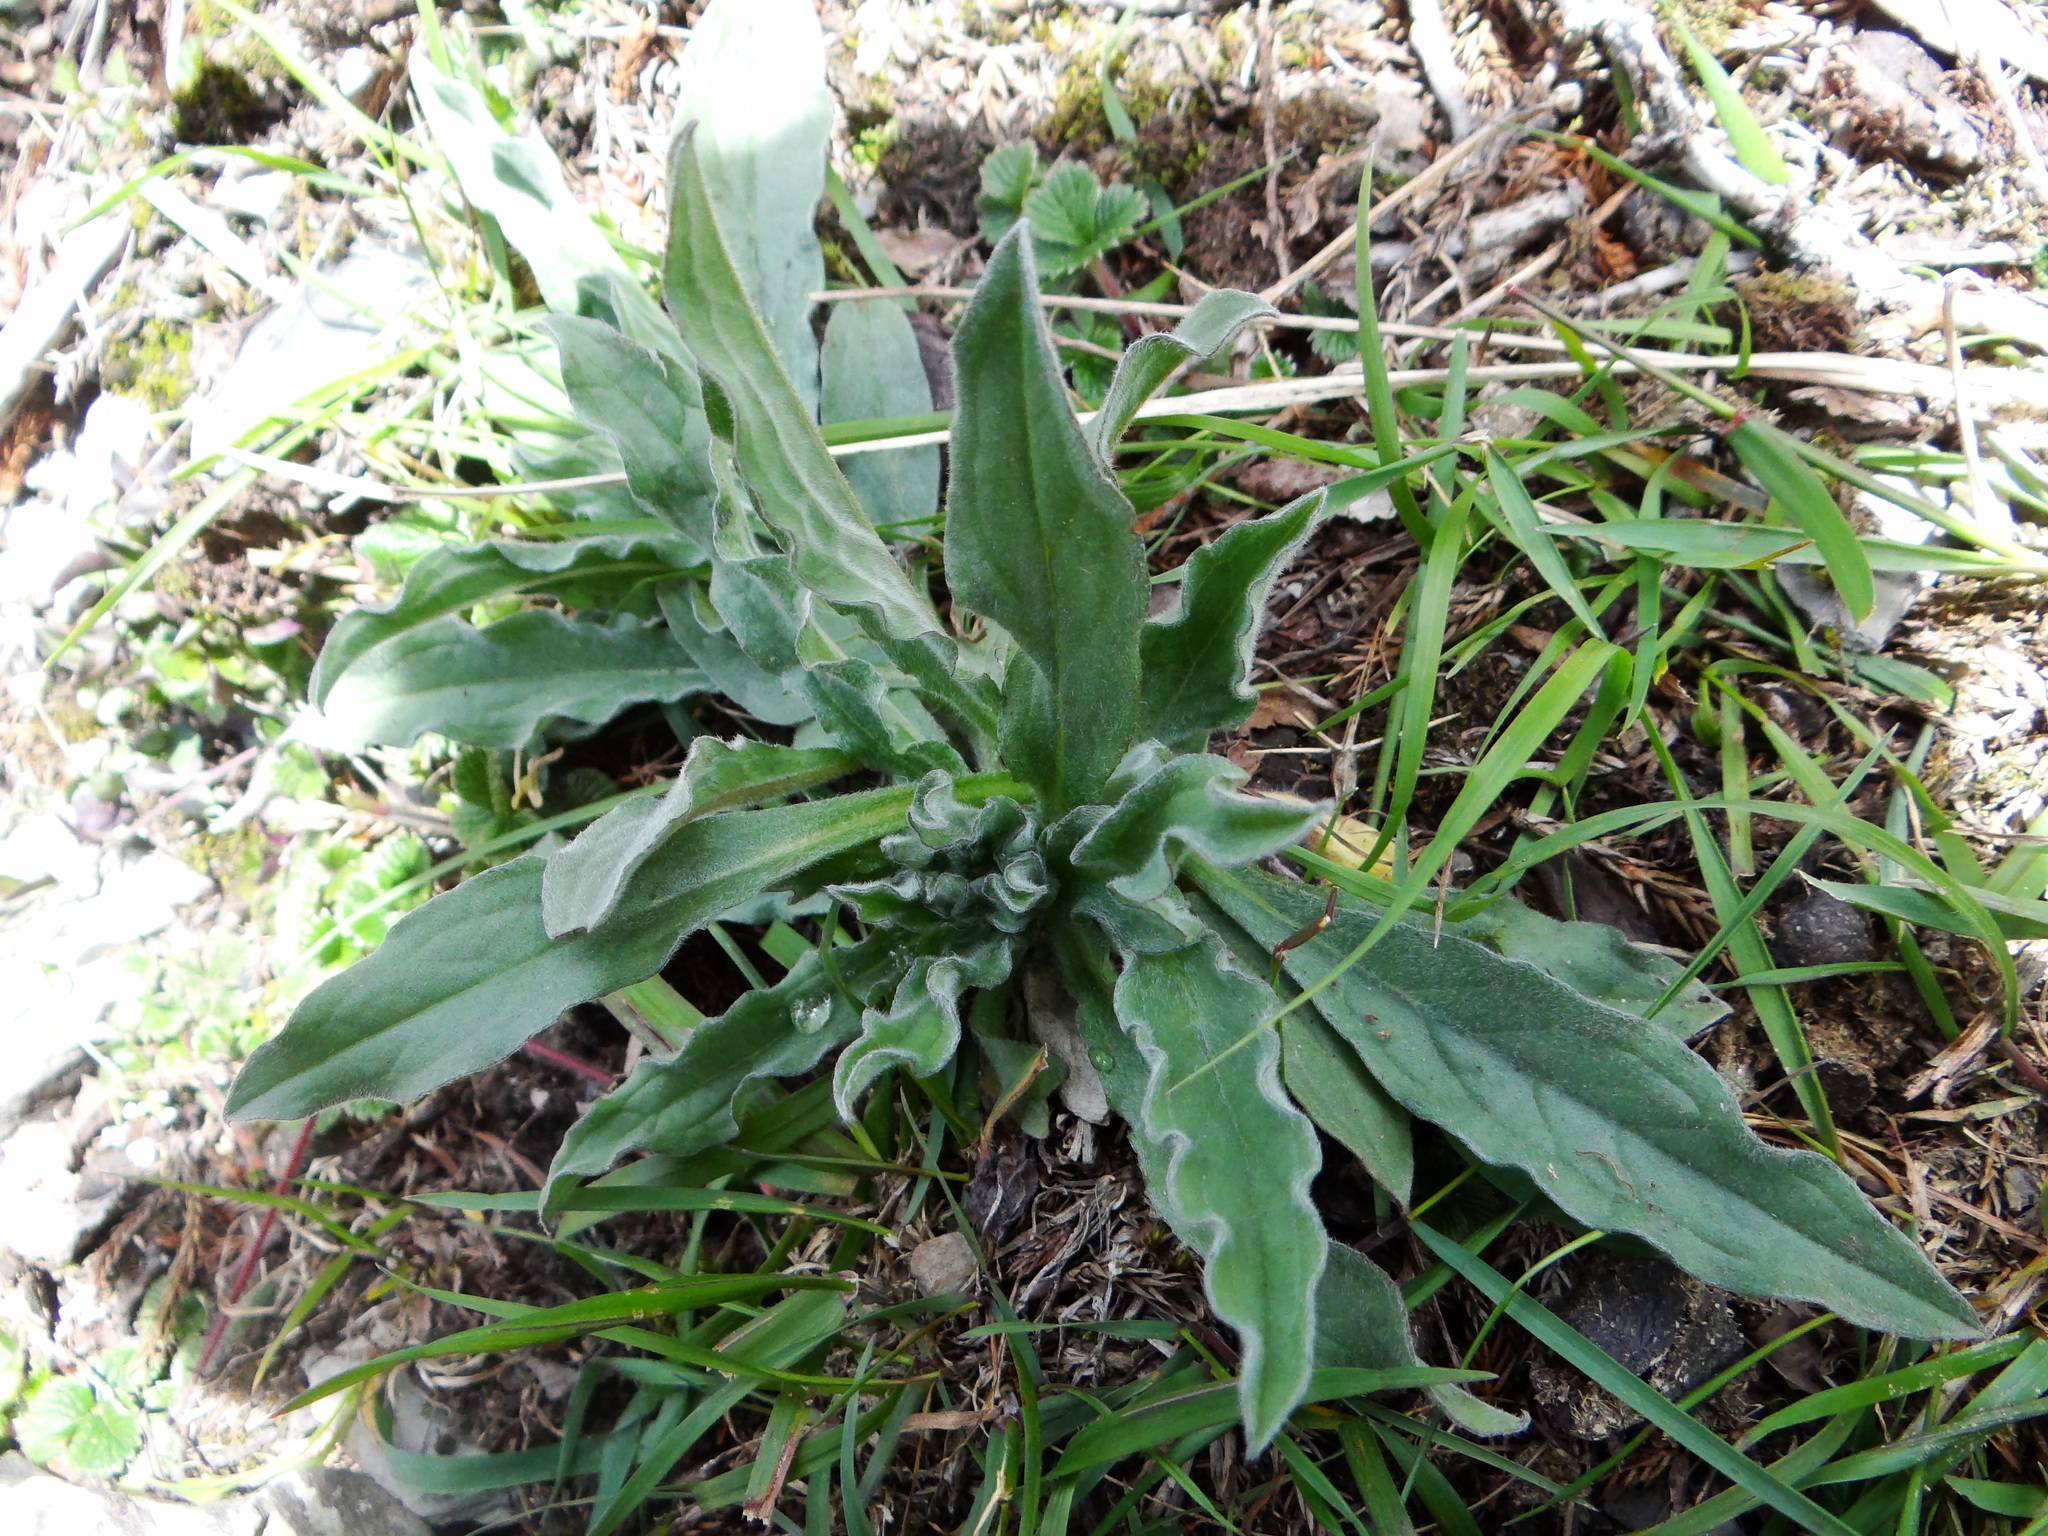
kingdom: Plantae
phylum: Tracheophyta
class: Magnoliopsida
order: Boraginales
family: Boraginaceae
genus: Cynoglossum
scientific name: Cynoglossum alpestre
